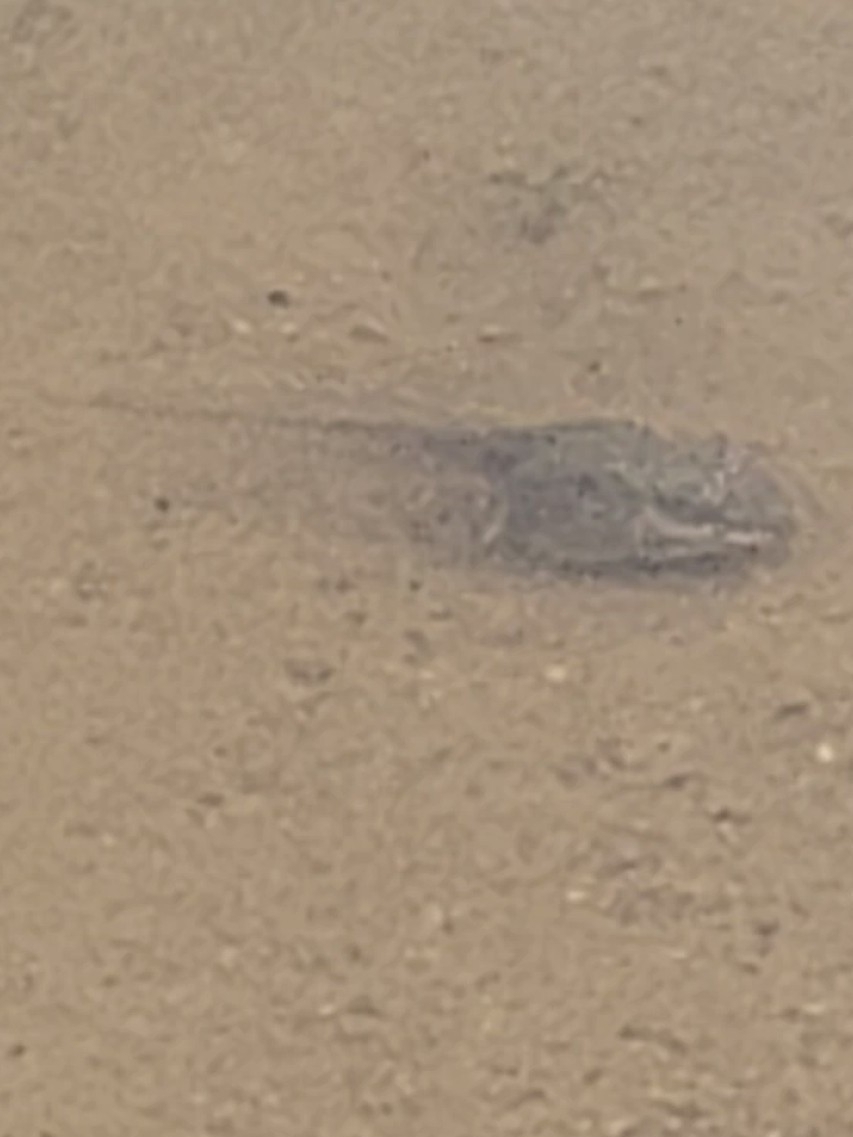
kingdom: Animalia
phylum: Chordata
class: Amphibia
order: Anura
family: Ranidae
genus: Lithobates
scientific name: Lithobates sylvaticus
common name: Wood frog
